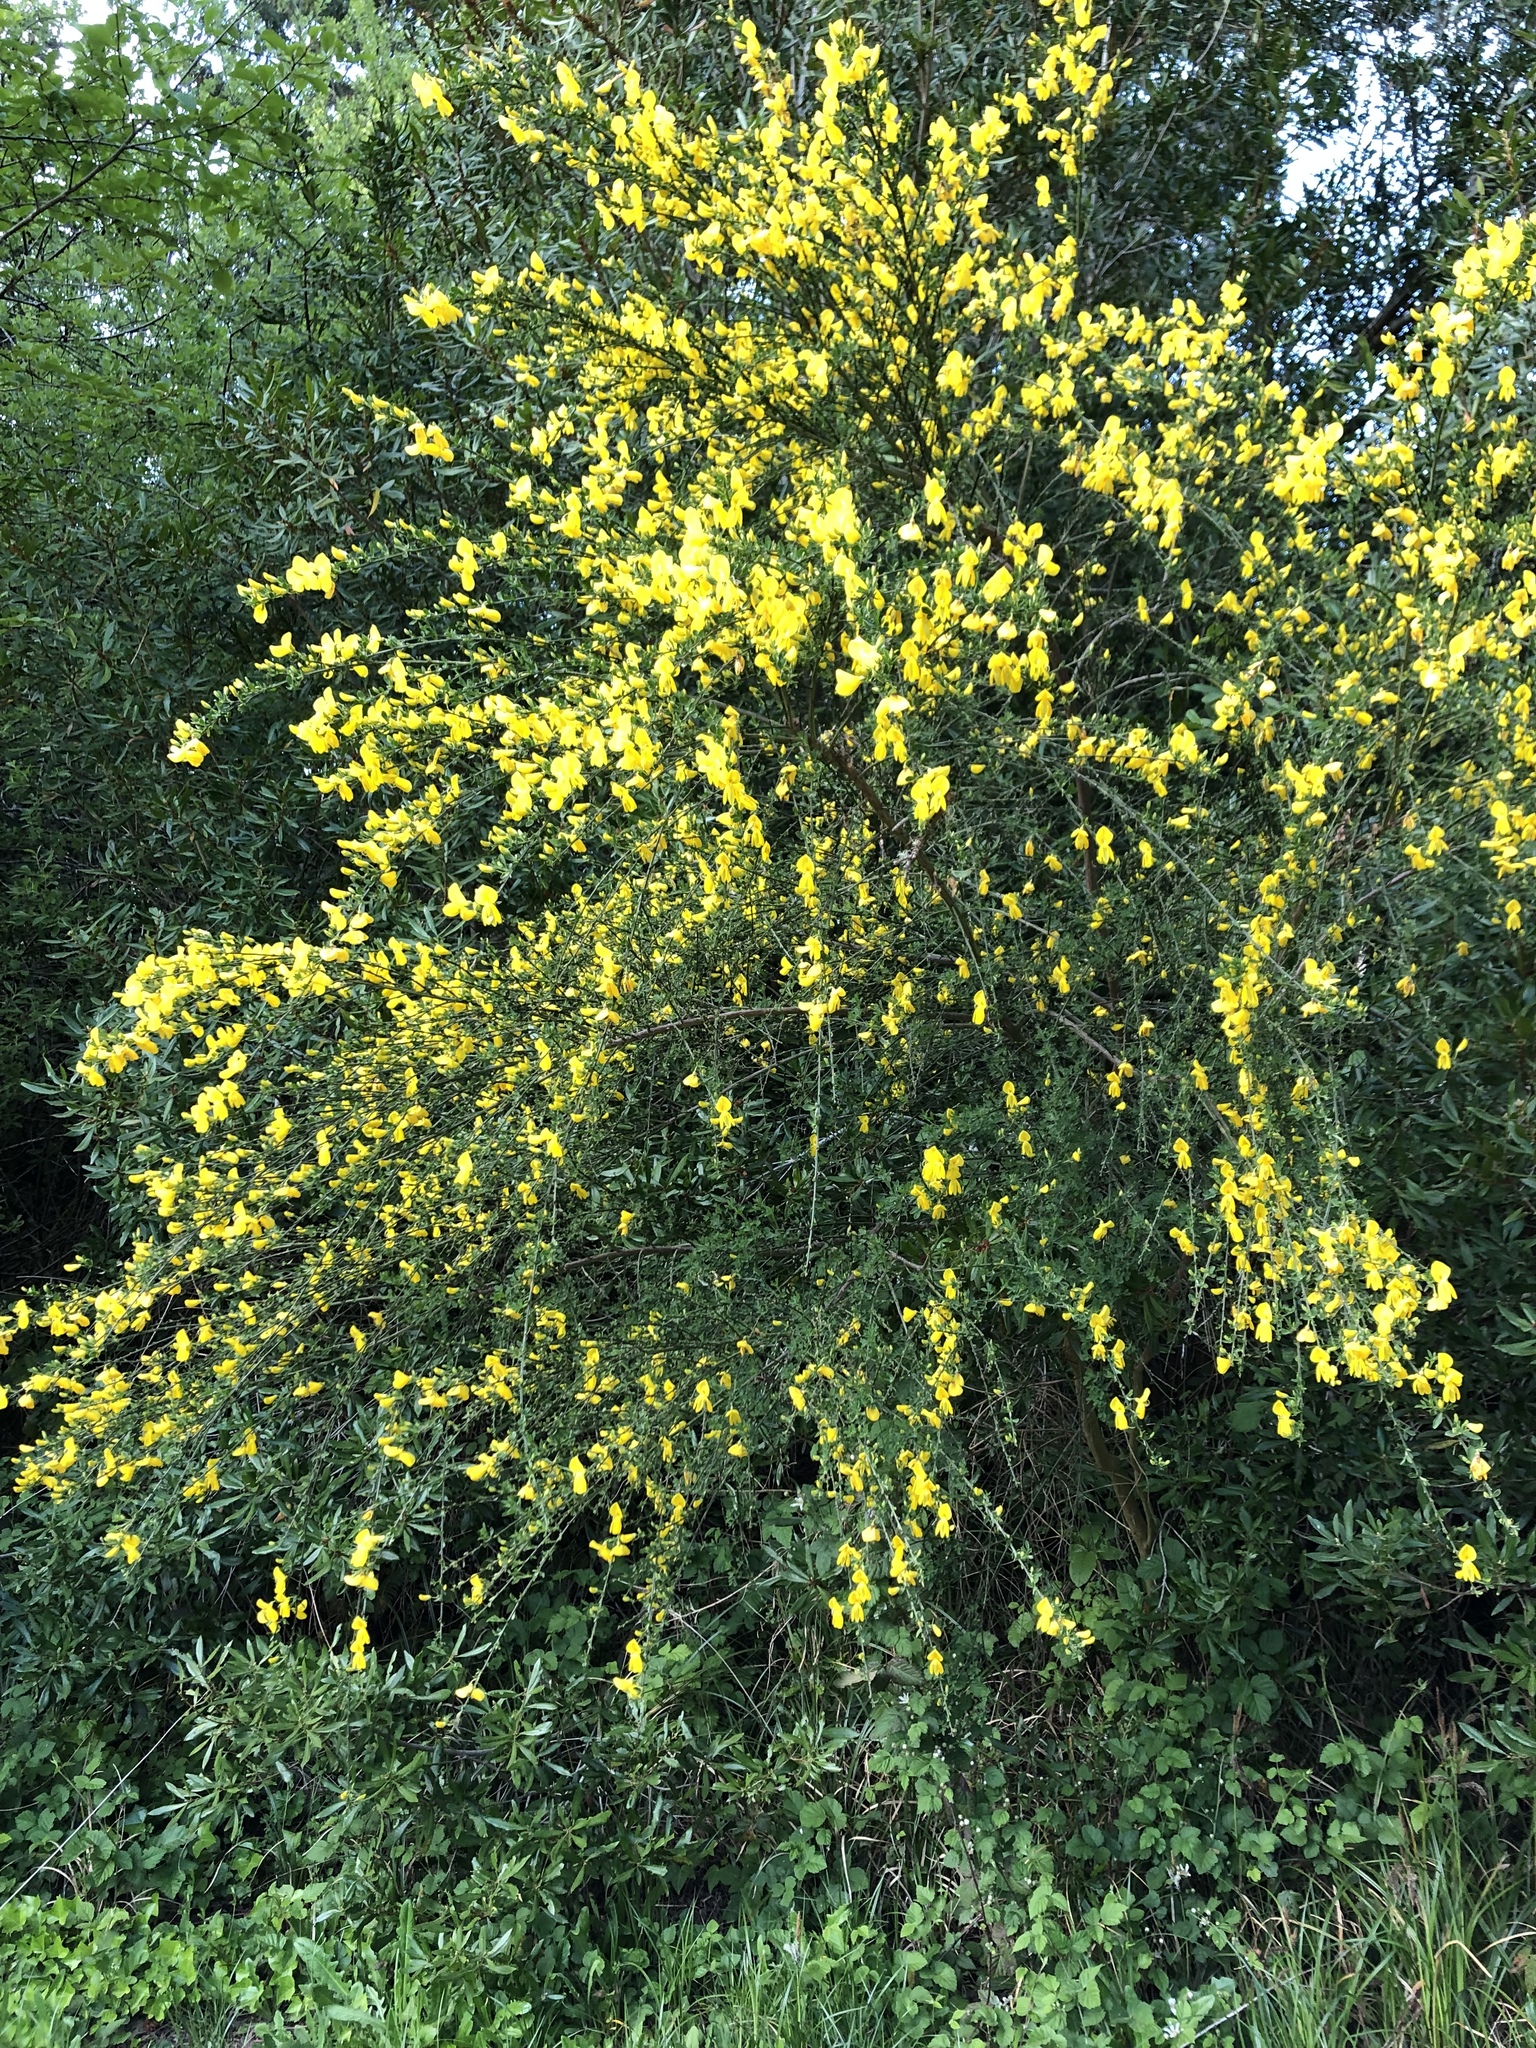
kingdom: Plantae
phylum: Tracheophyta
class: Magnoliopsida
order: Fabales
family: Fabaceae
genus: Cytisus
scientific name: Cytisus scoparius
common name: Scotch broom
